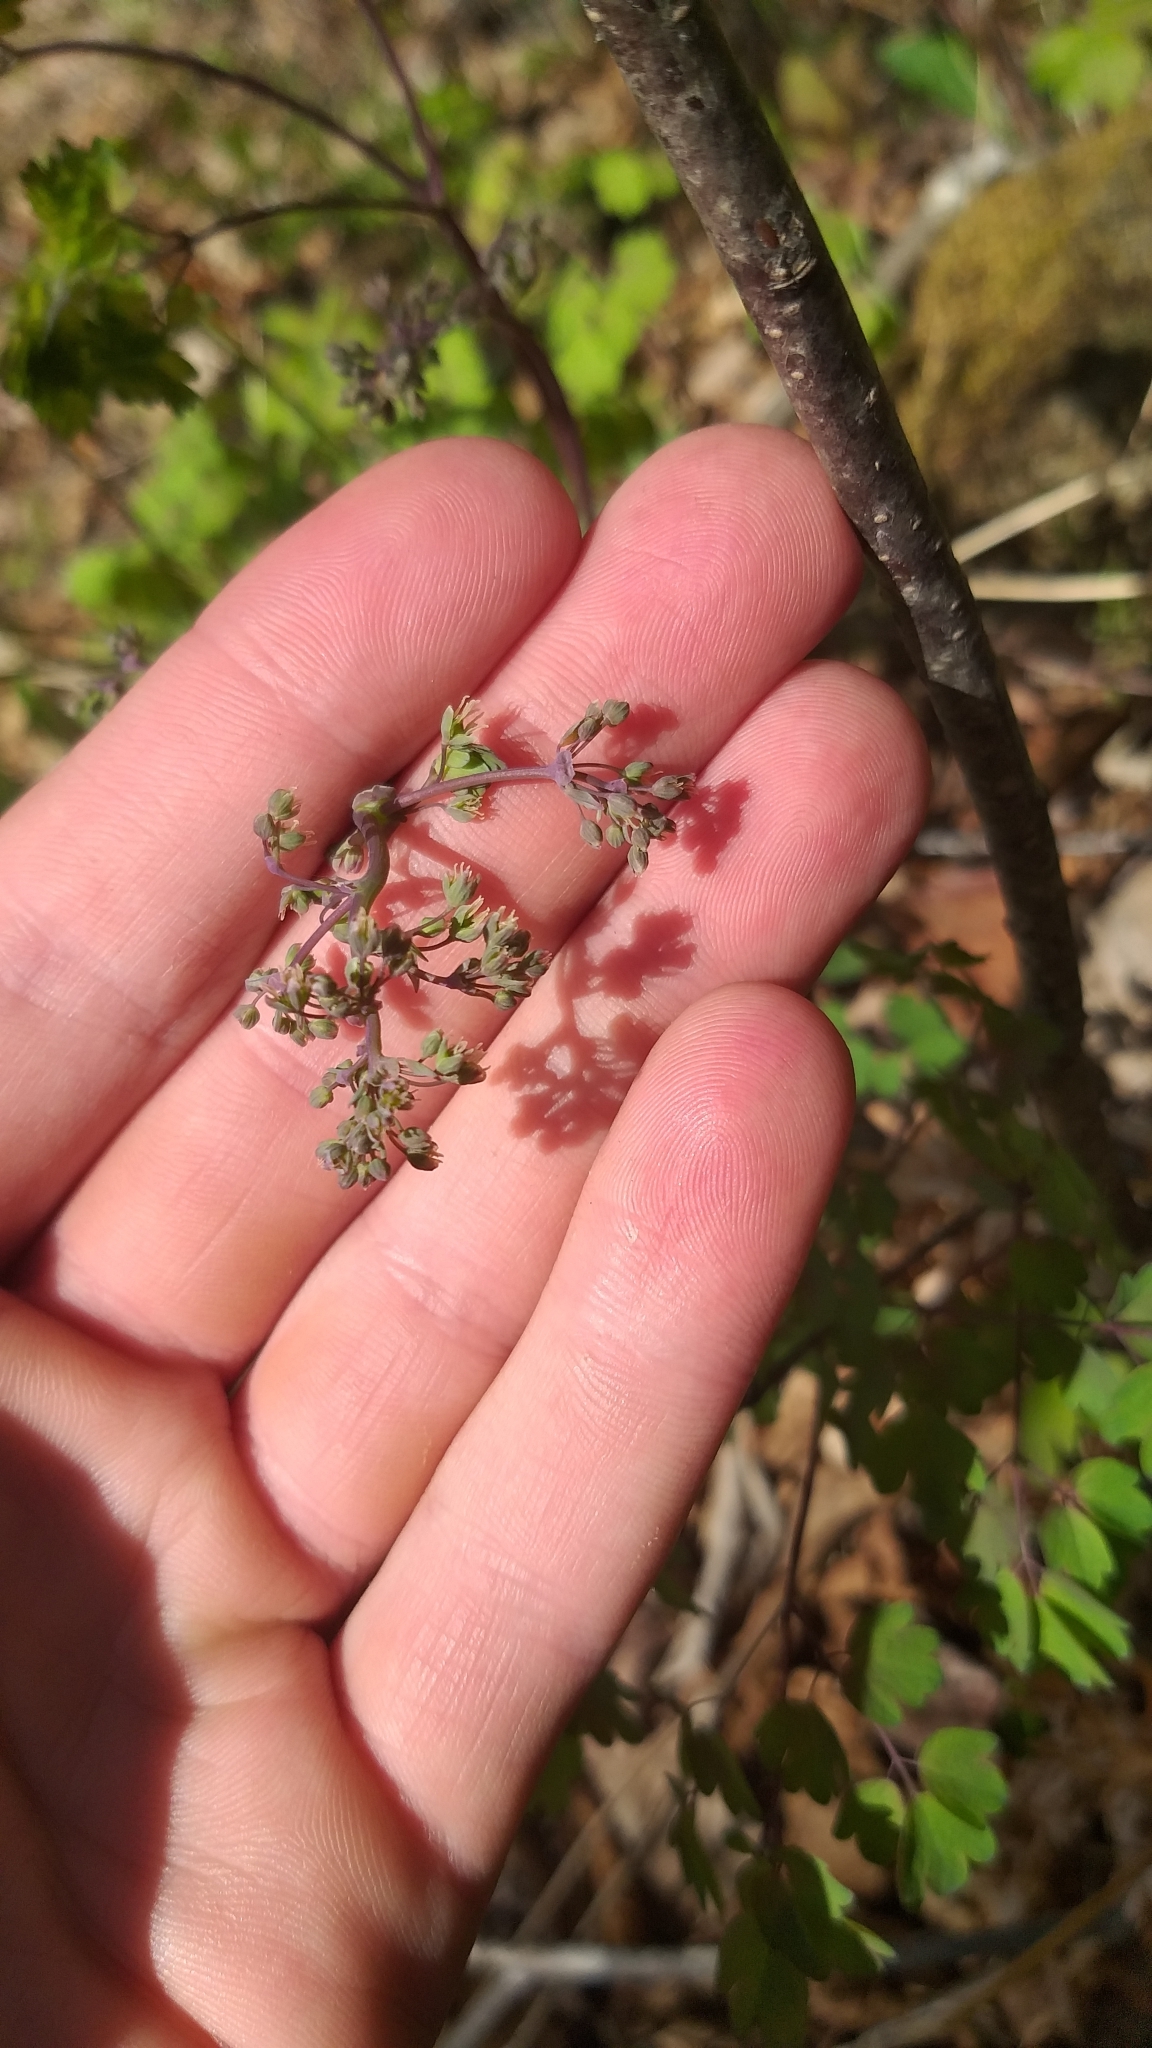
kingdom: Plantae
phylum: Tracheophyta
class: Magnoliopsida
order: Ranunculales
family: Ranunculaceae
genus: Thalictrum
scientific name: Thalictrum dioicum
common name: Early meadow-rue
